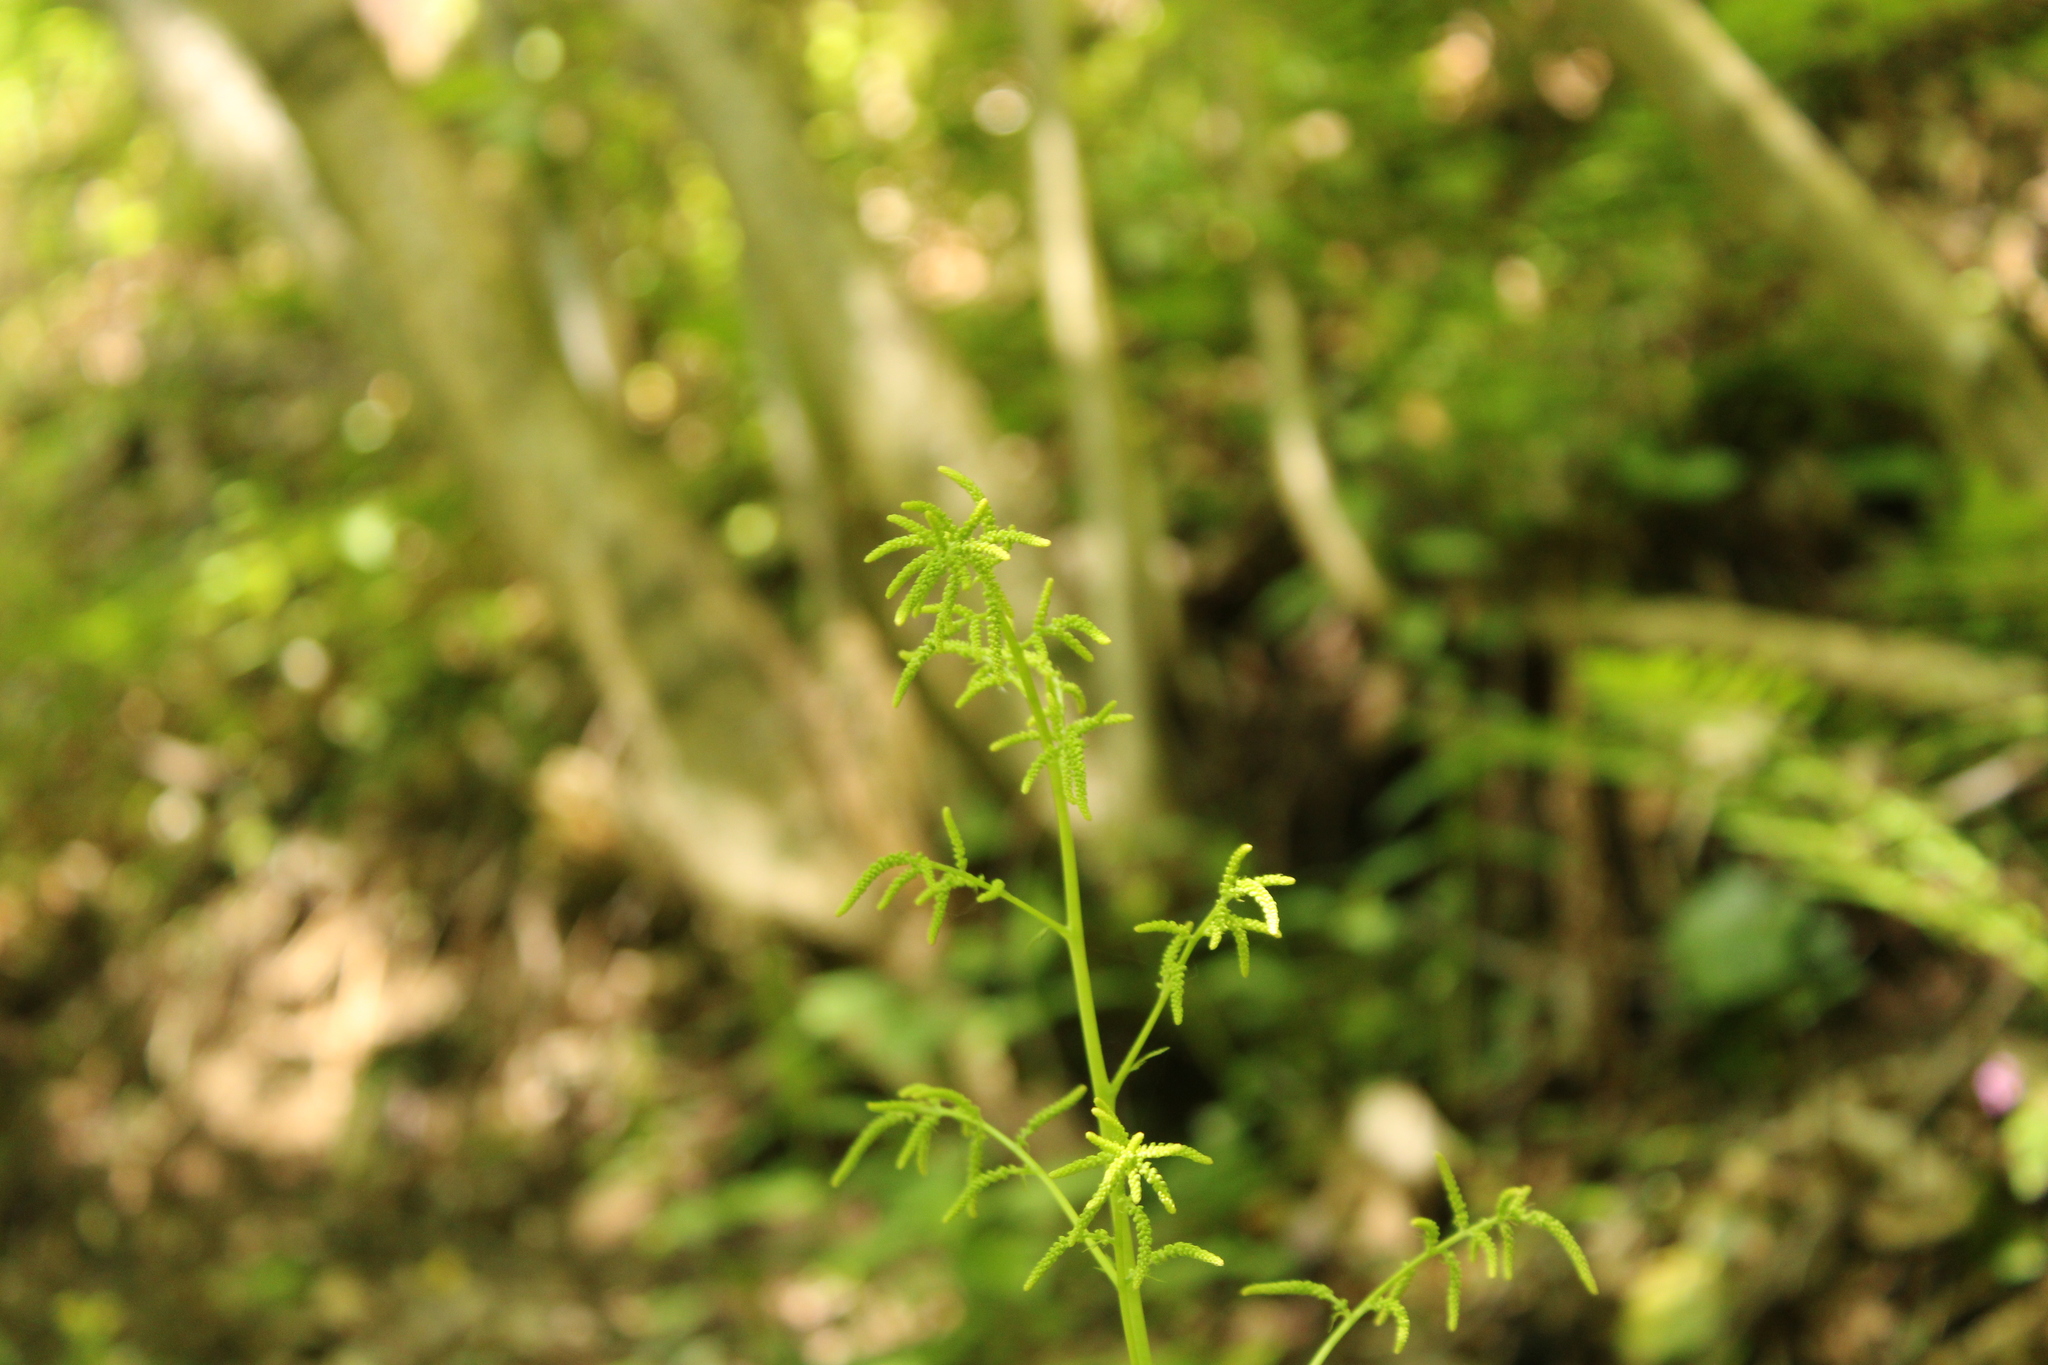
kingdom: Plantae
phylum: Tracheophyta
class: Magnoliopsida
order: Rosales
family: Rosaceae
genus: Aruncus
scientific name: Aruncus dioicus
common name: Buck's-beard
